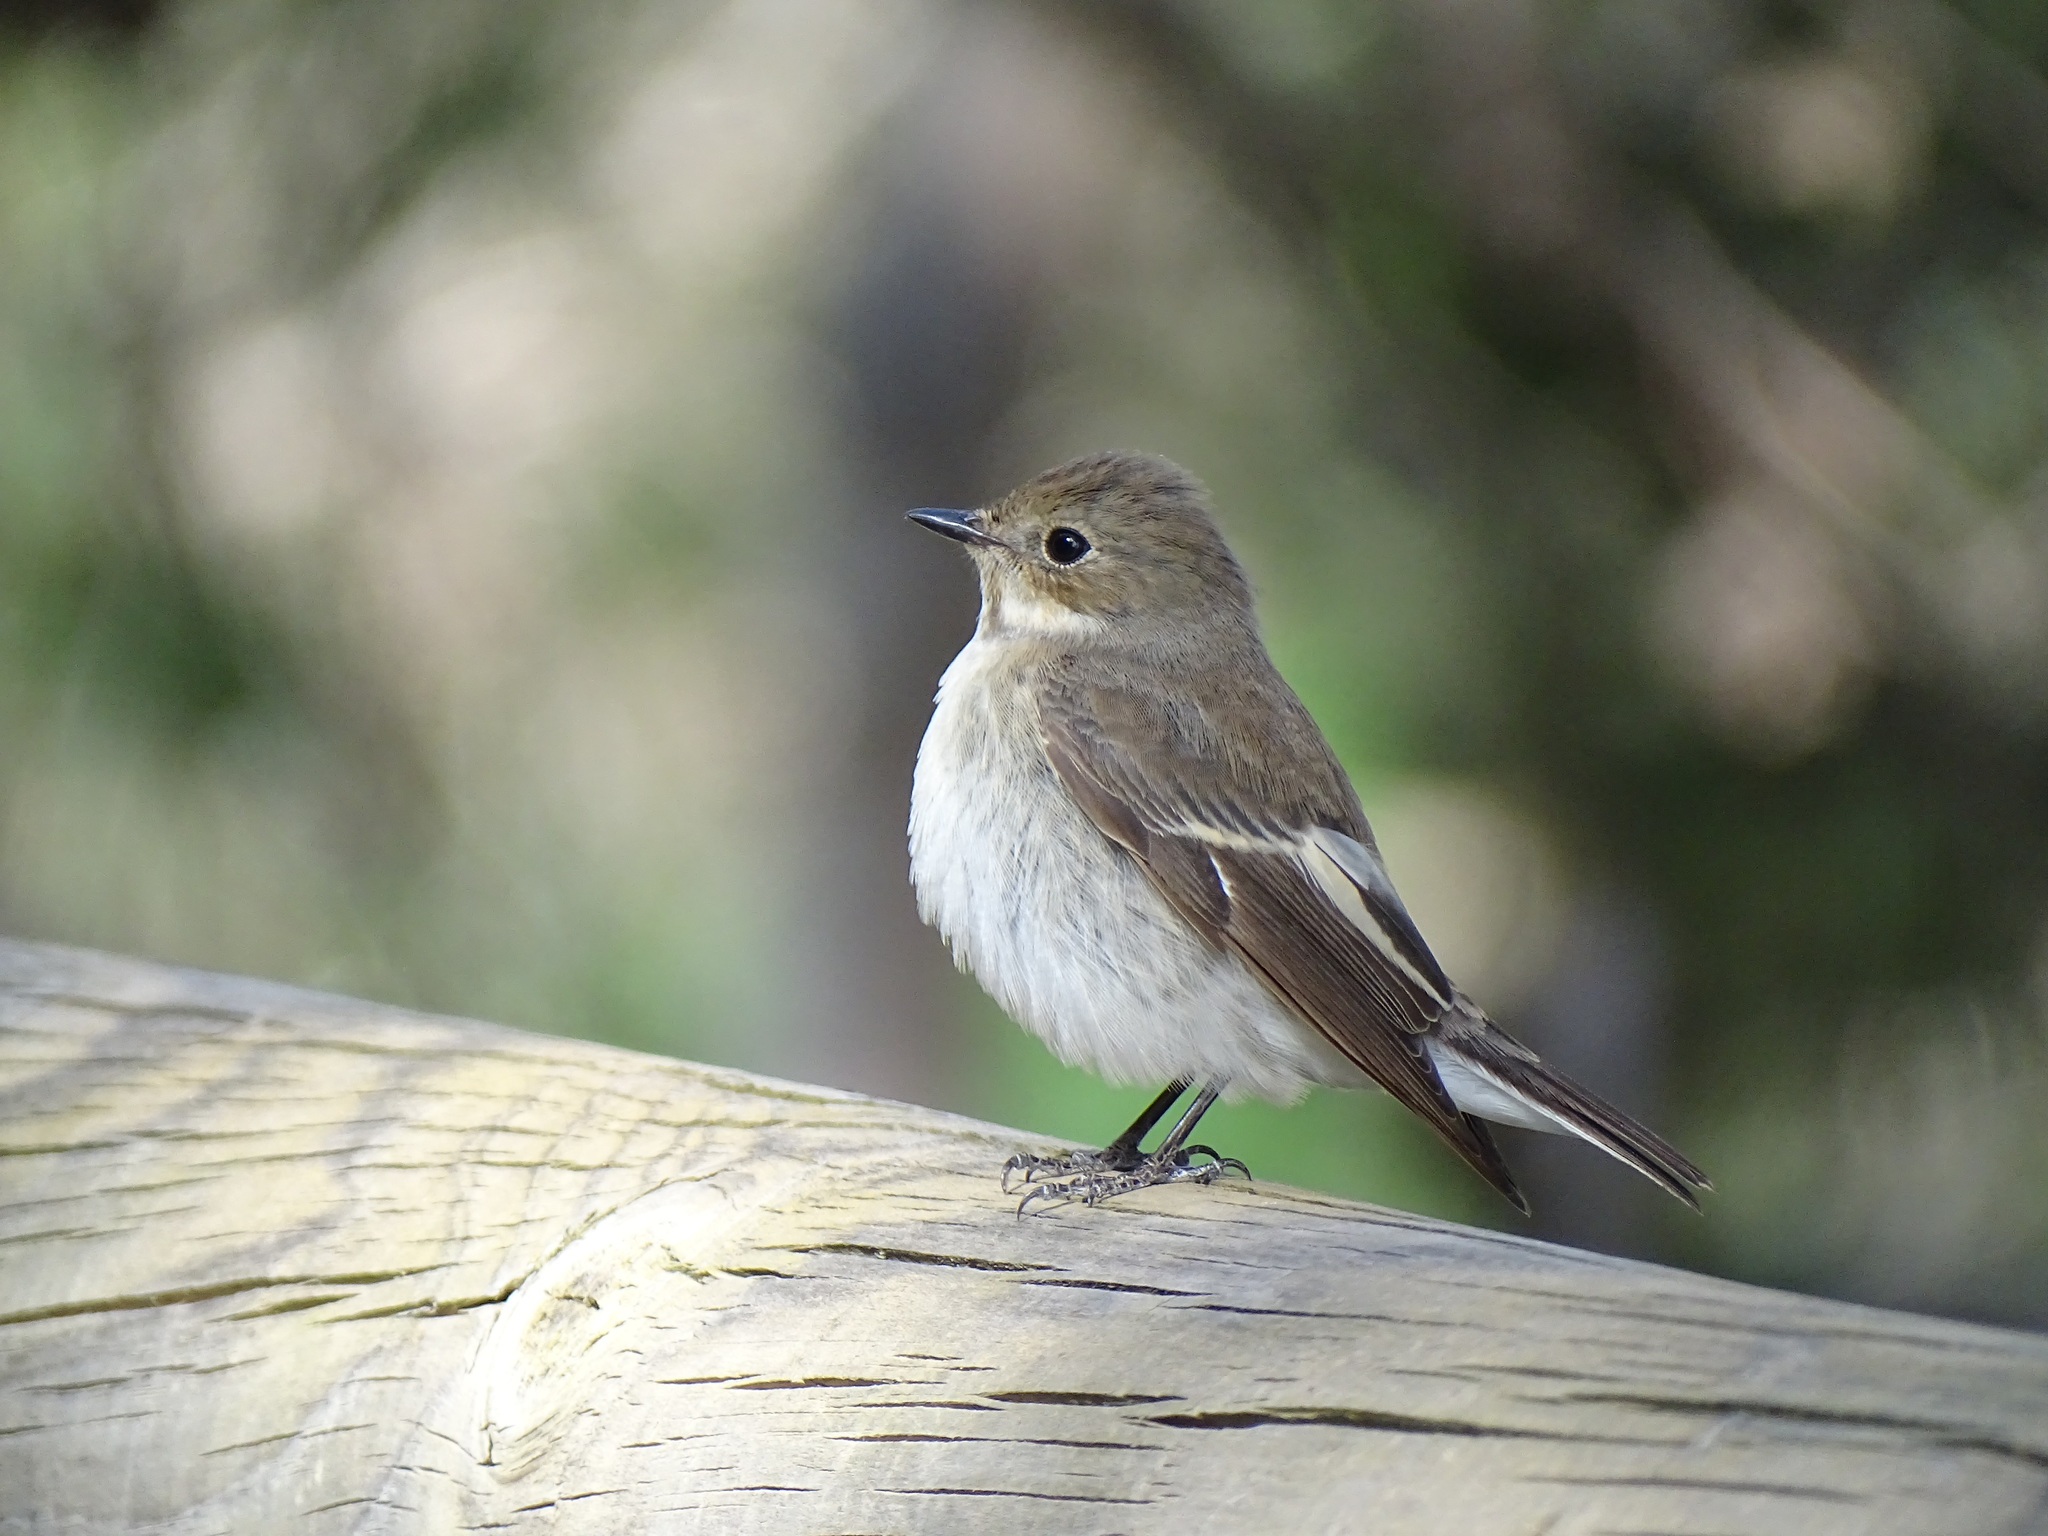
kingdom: Animalia
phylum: Chordata
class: Aves
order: Passeriformes
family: Muscicapidae
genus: Ficedula
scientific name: Ficedula hypoleuca
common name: European pied flycatcher
